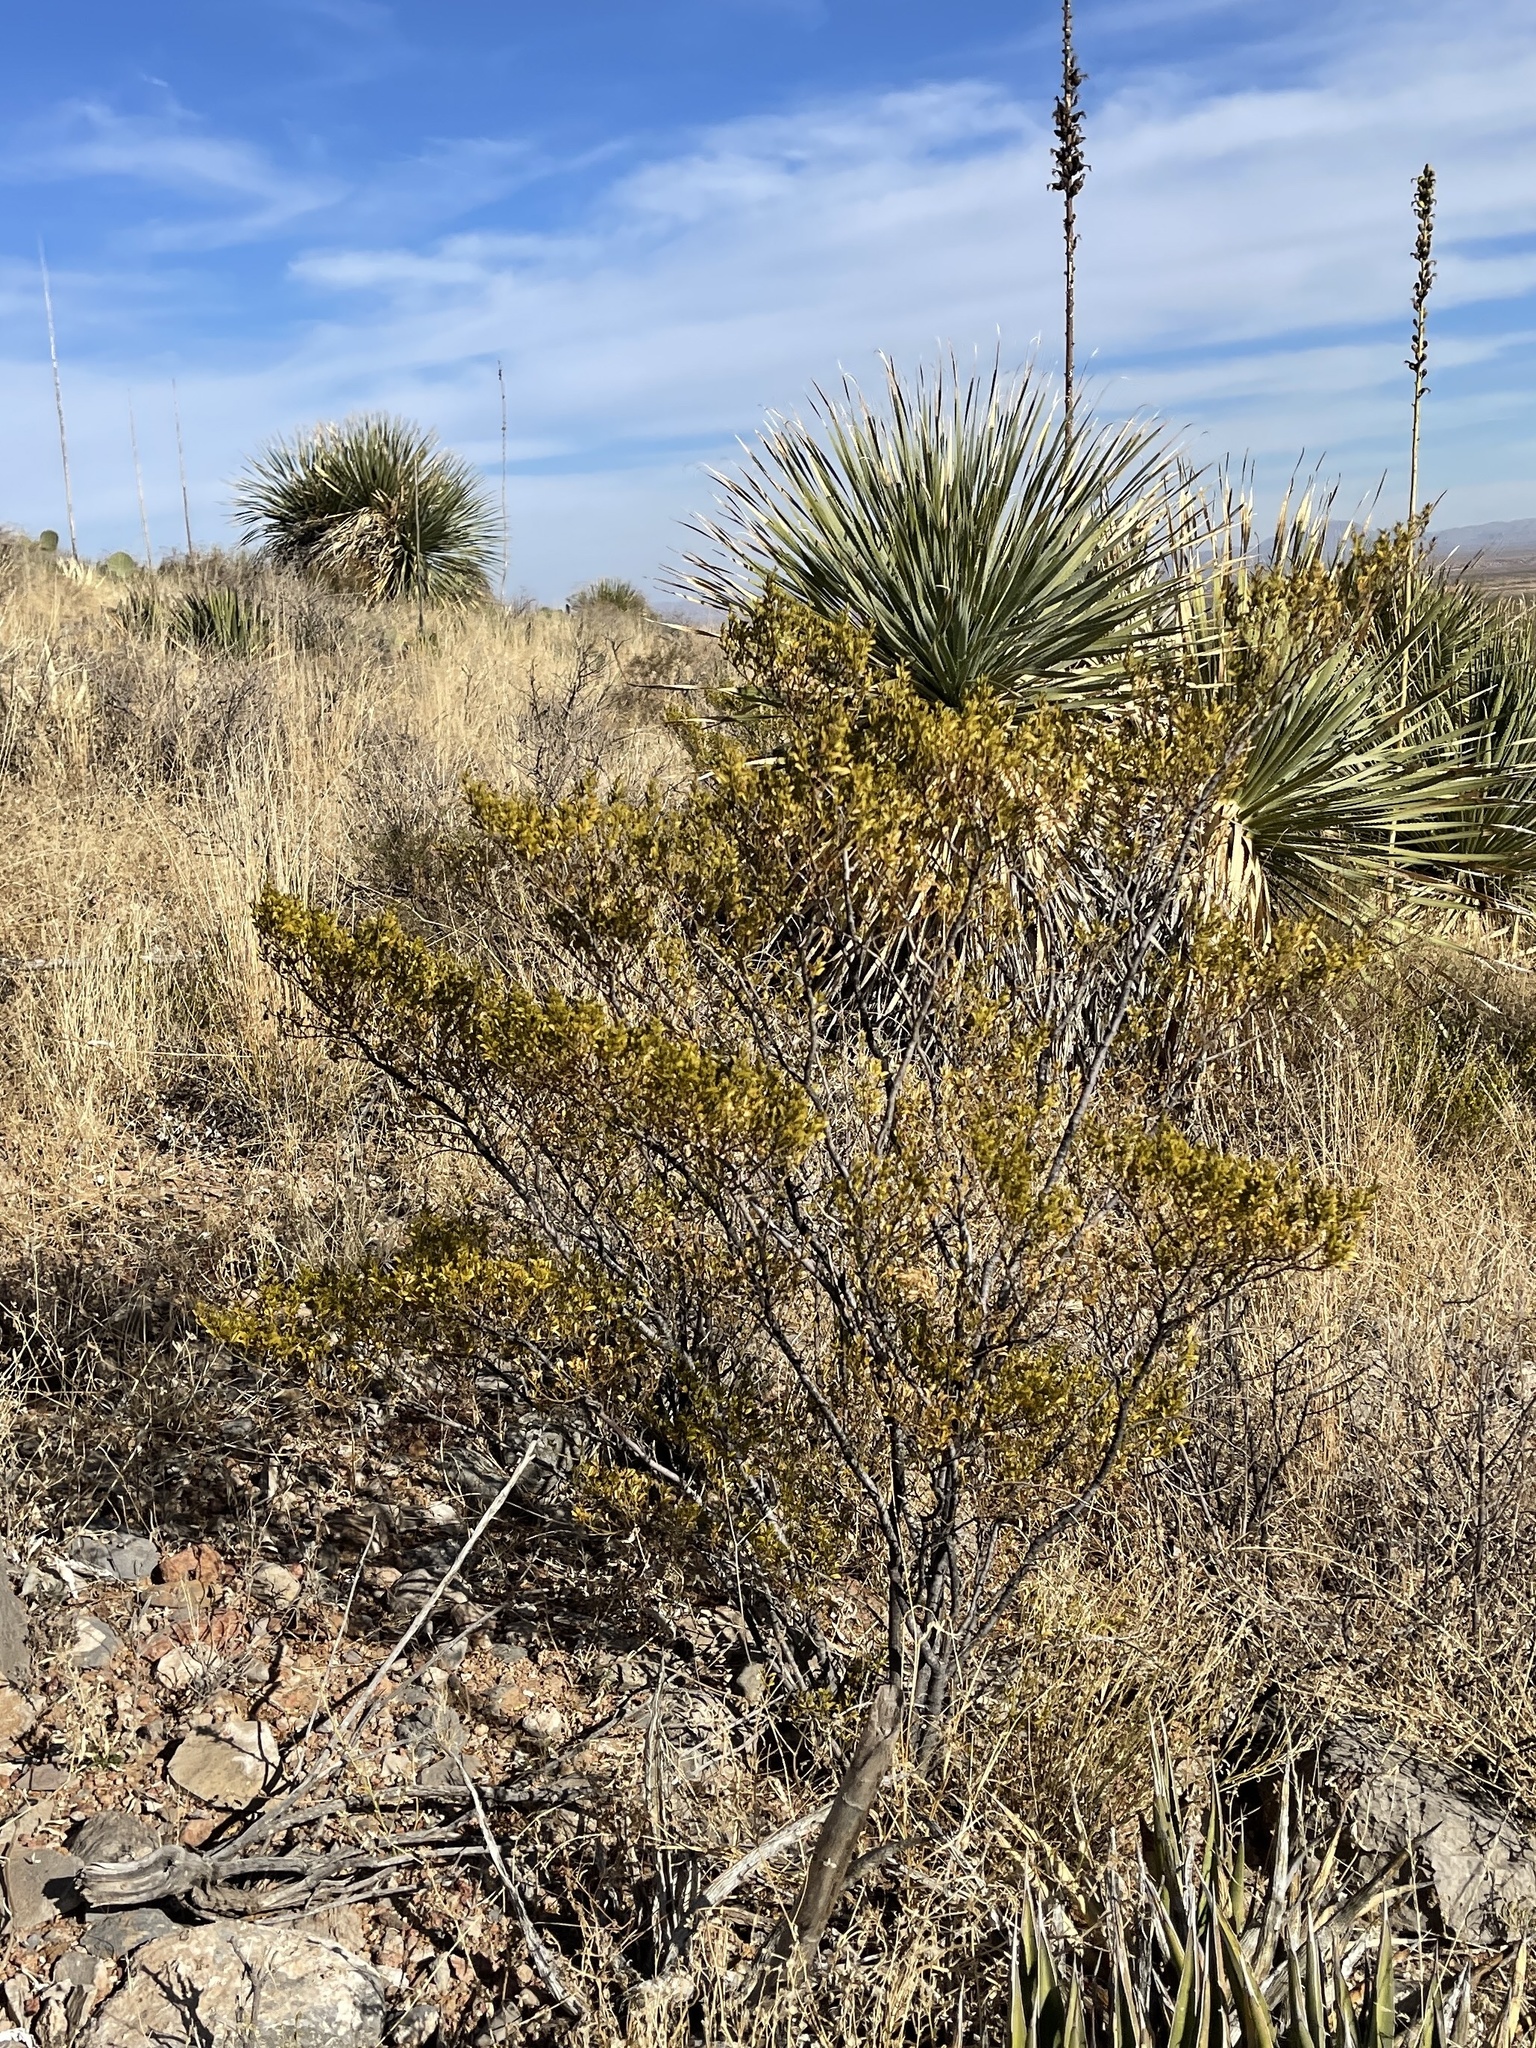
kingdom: Plantae
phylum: Tracheophyta
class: Magnoliopsida
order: Zygophyllales
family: Zygophyllaceae
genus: Larrea
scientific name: Larrea tridentata
